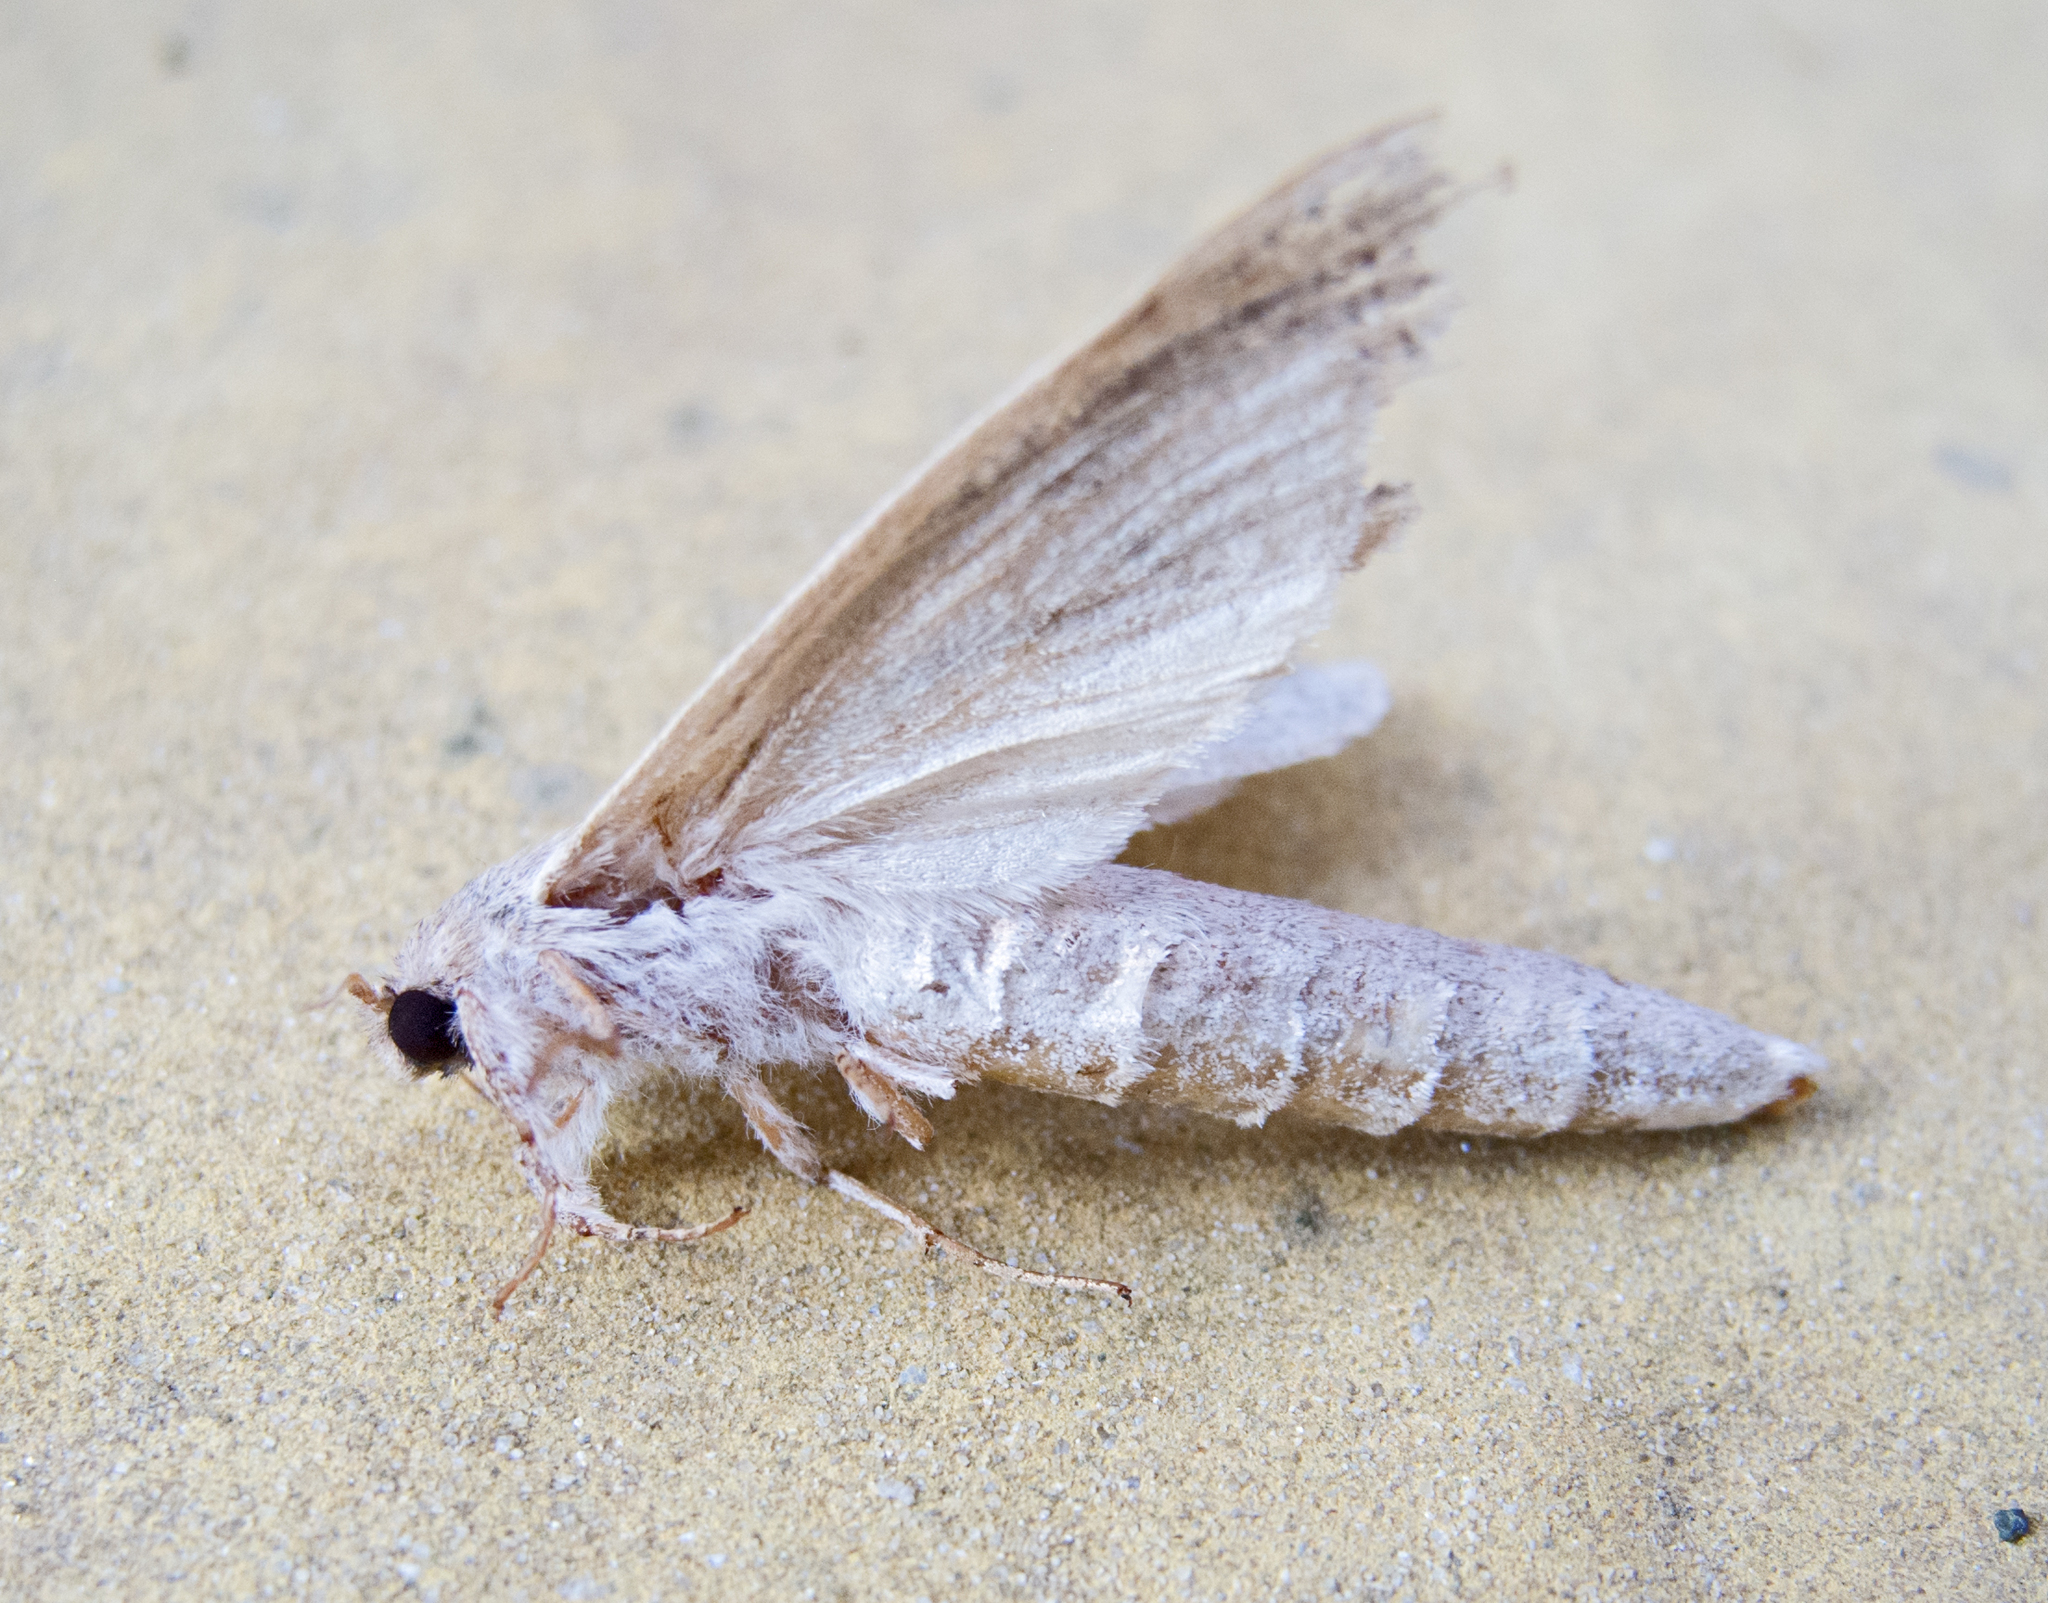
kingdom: Animalia
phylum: Arthropoda
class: Insecta
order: Lepidoptera
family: Cossidae
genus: Phragmataecia
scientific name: Phragmataecia castaneae
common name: Reed leopard
